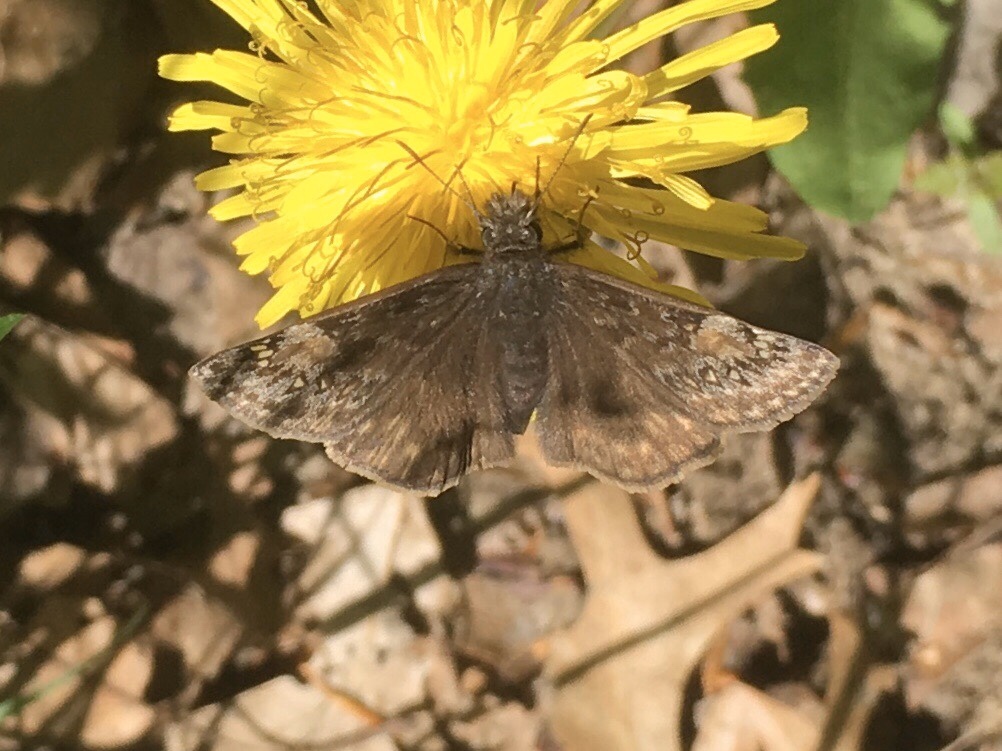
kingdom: Animalia
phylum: Arthropoda
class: Insecta
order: Lepidoptera
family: Hesperiidae
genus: Erynnis
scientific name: Erynnis juvenalis
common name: Juvenal's duskywing
